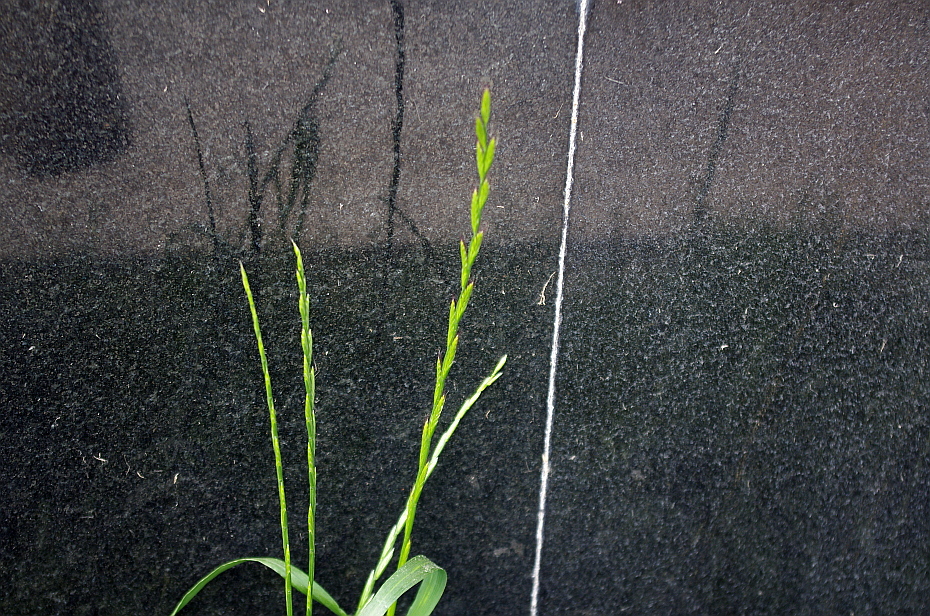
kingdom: Plantae
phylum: Tracheophyta
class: Liliopsida
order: Poales
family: Poaceae
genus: Lolium
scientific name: Lolium perenne
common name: Perennial ryegrass
